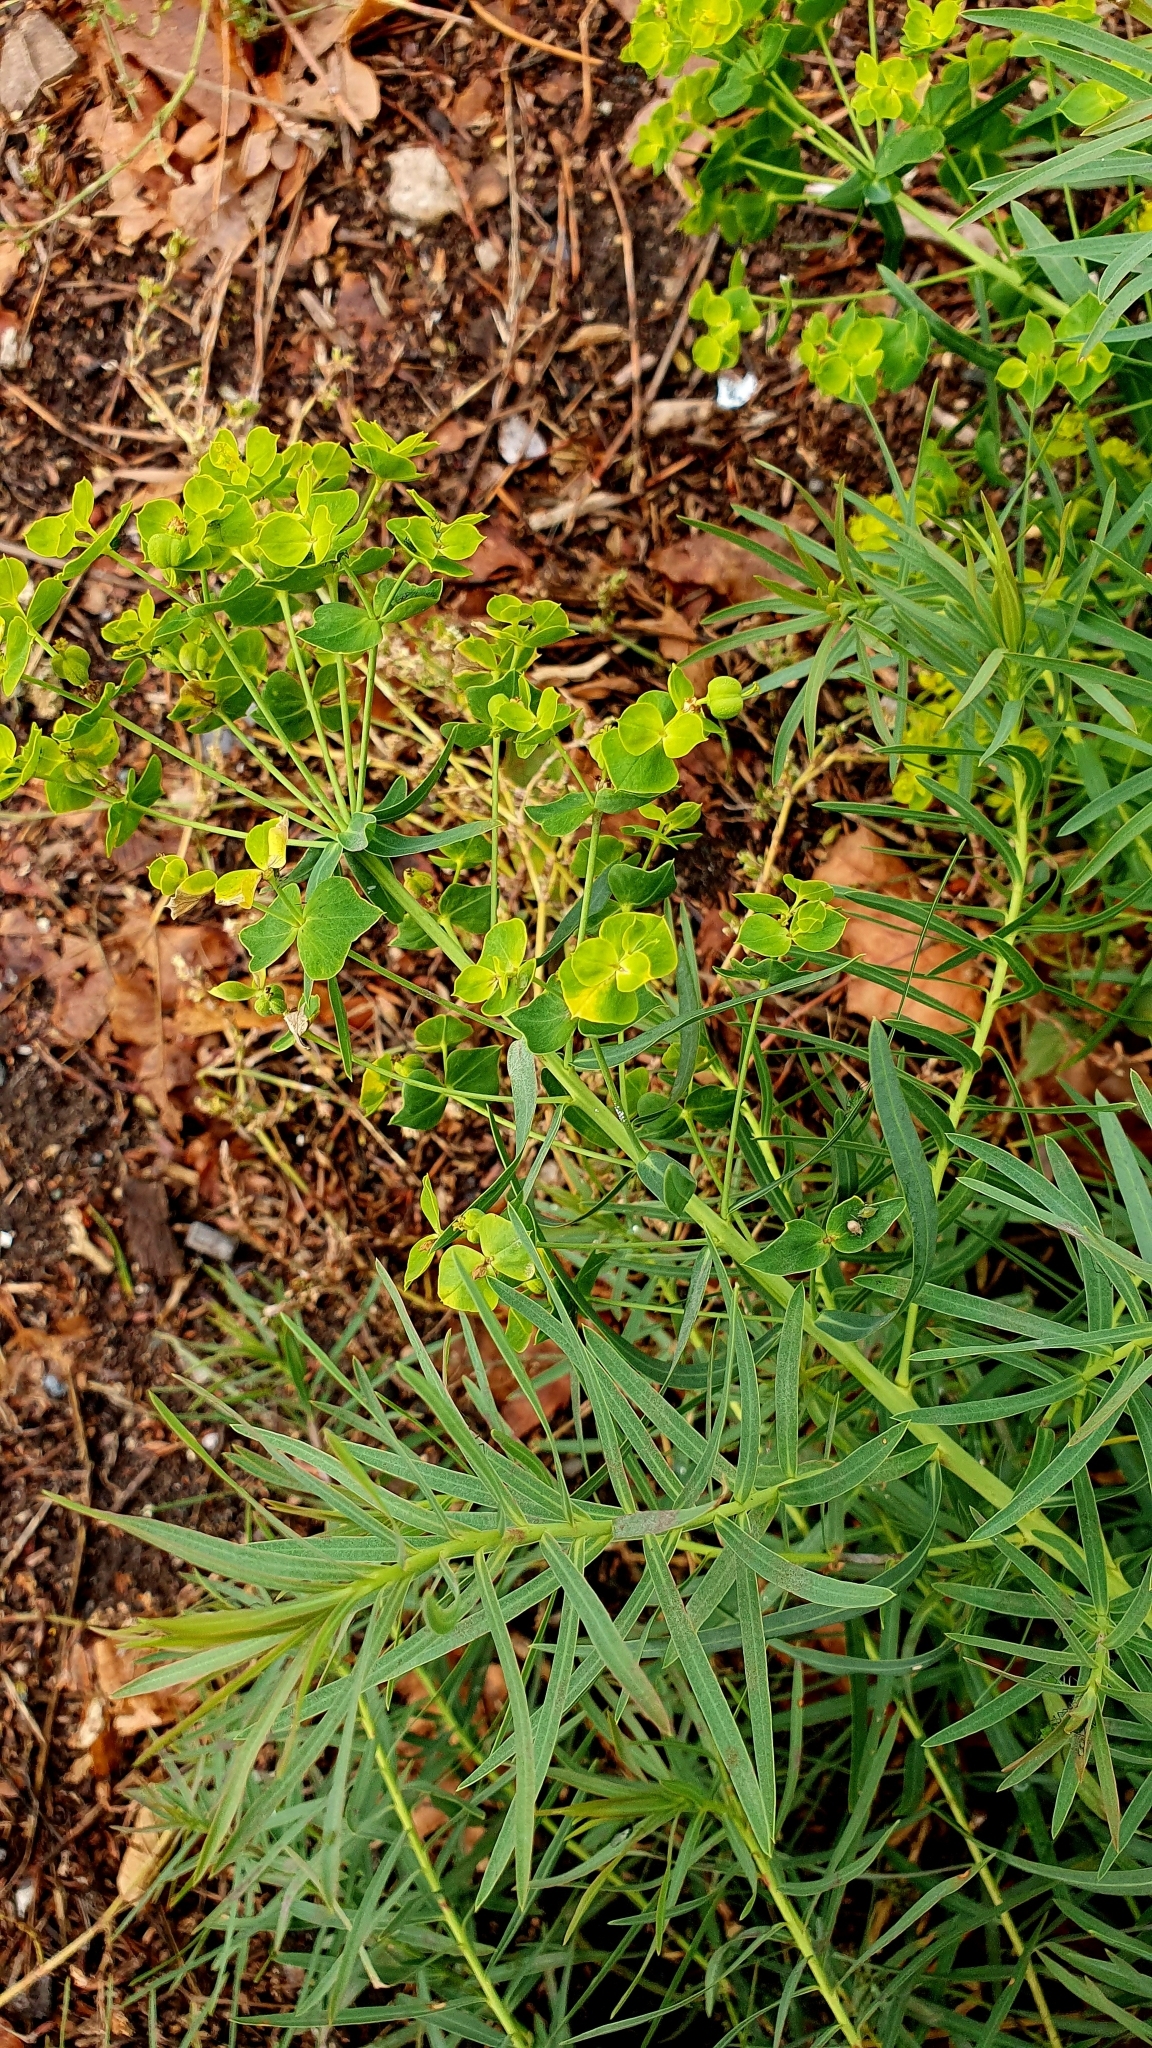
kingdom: Plantae
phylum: Tracheophyta
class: Magnoliopsida
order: Malpighiales
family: Euphorbiaceae
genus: Euphorbia
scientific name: Euphorbia virgata
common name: Leafy spurge
